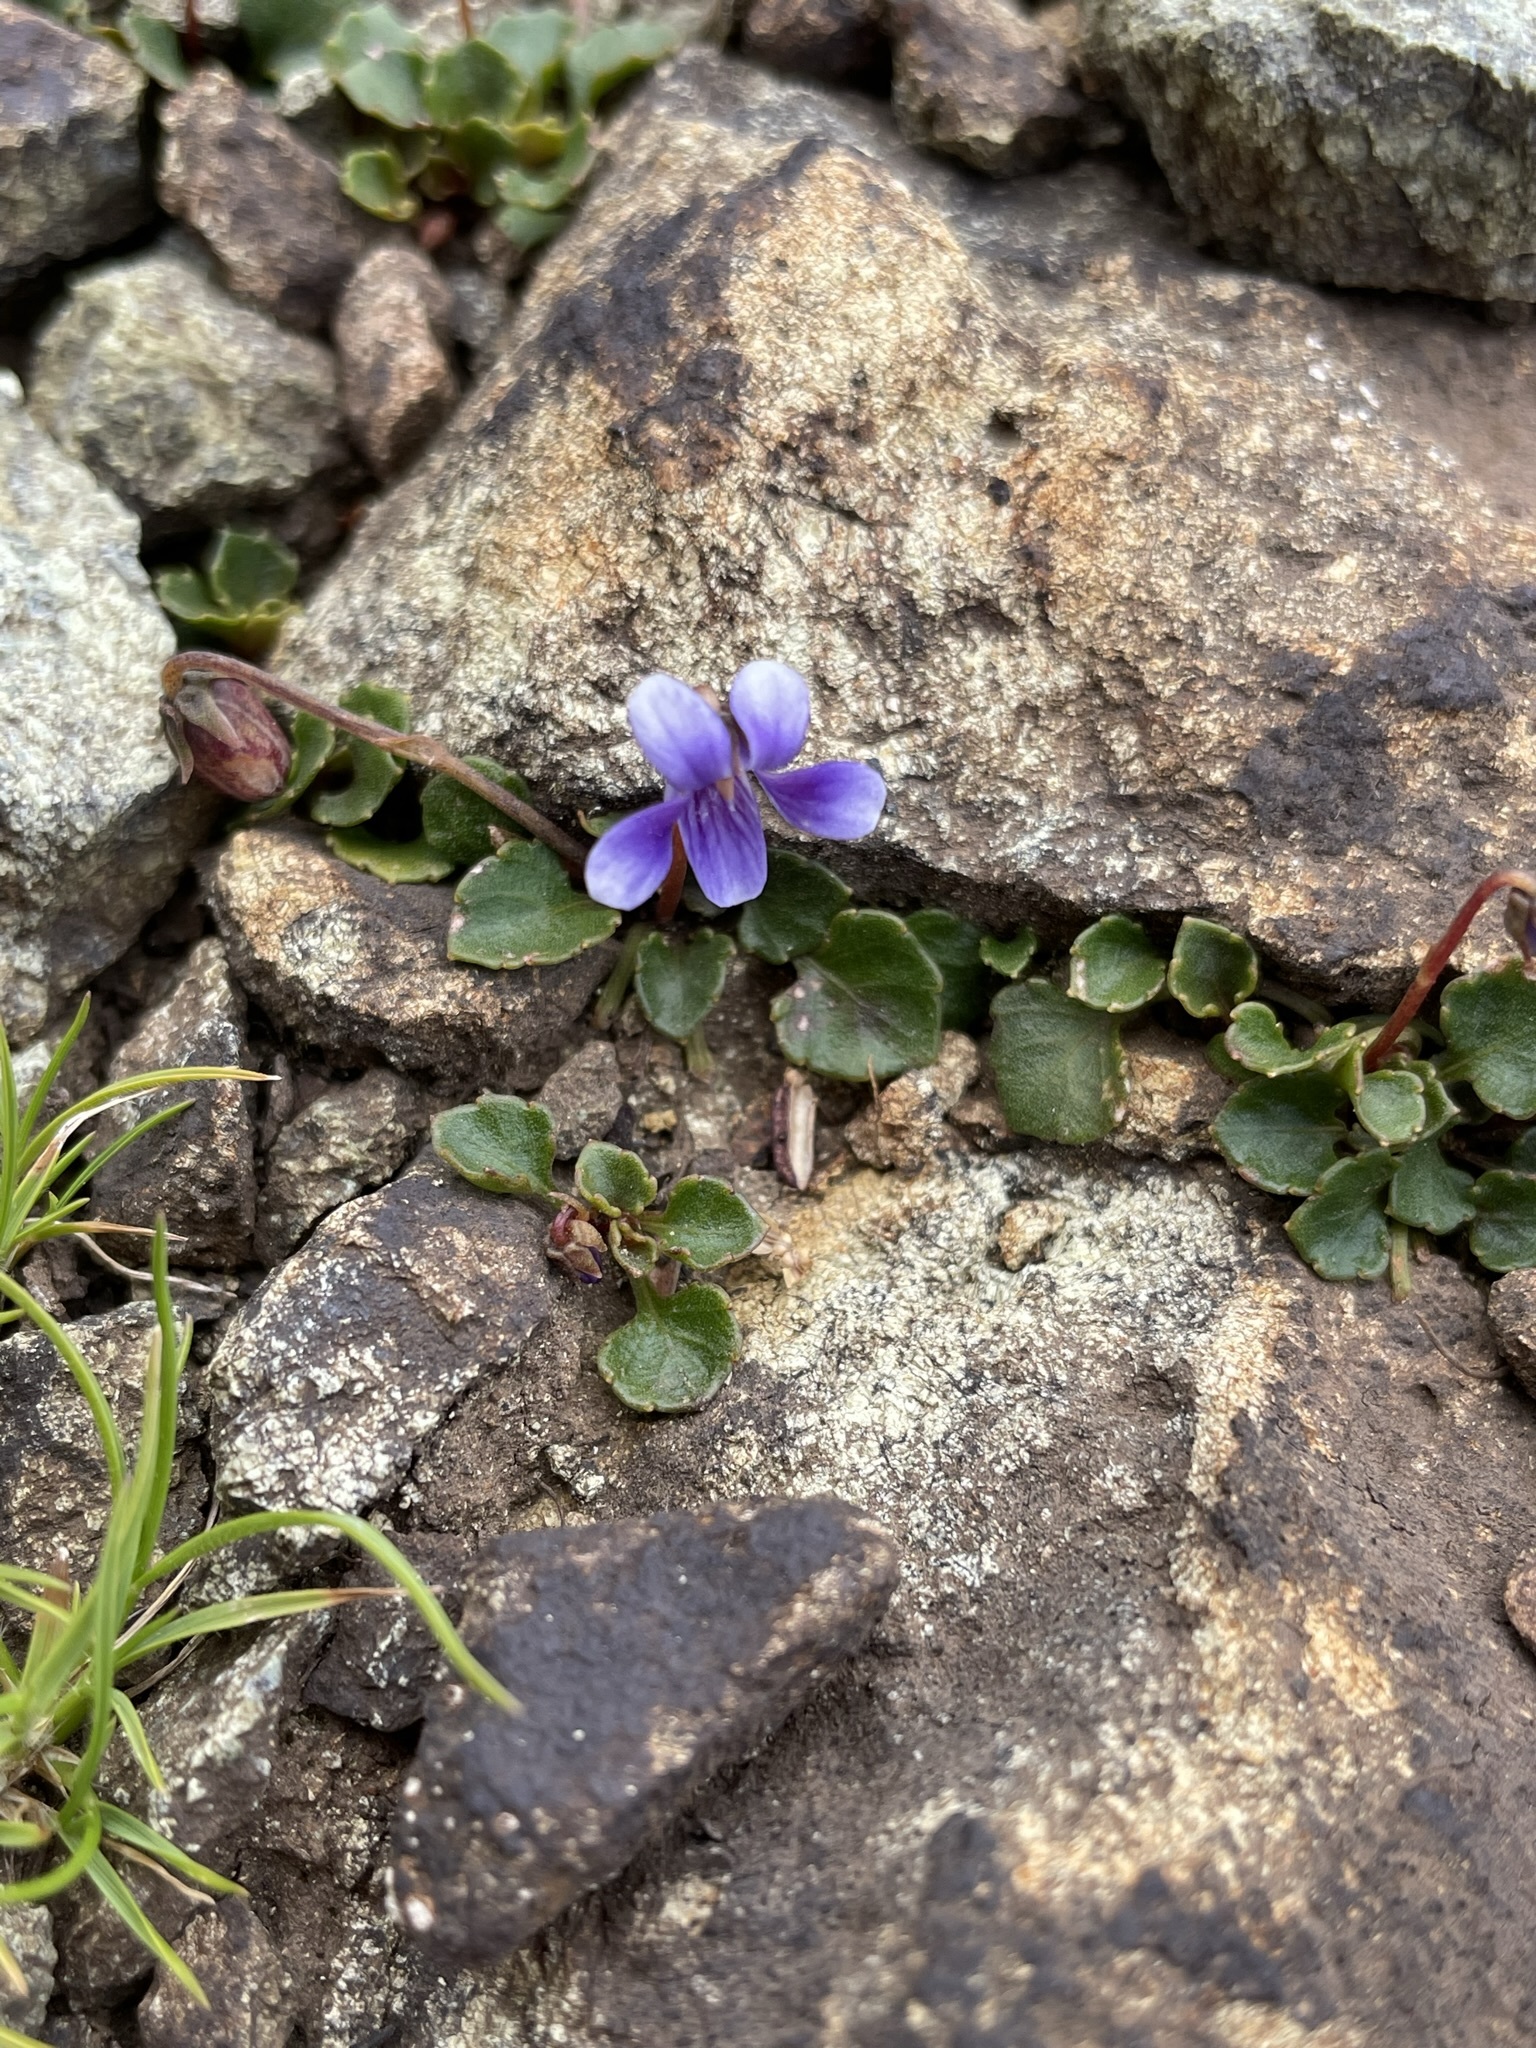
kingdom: Plantae
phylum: Tracheophyta
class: Magnoliopsida
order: Malpighiales
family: Violaceae
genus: Viola
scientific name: Viola serpentinicola
